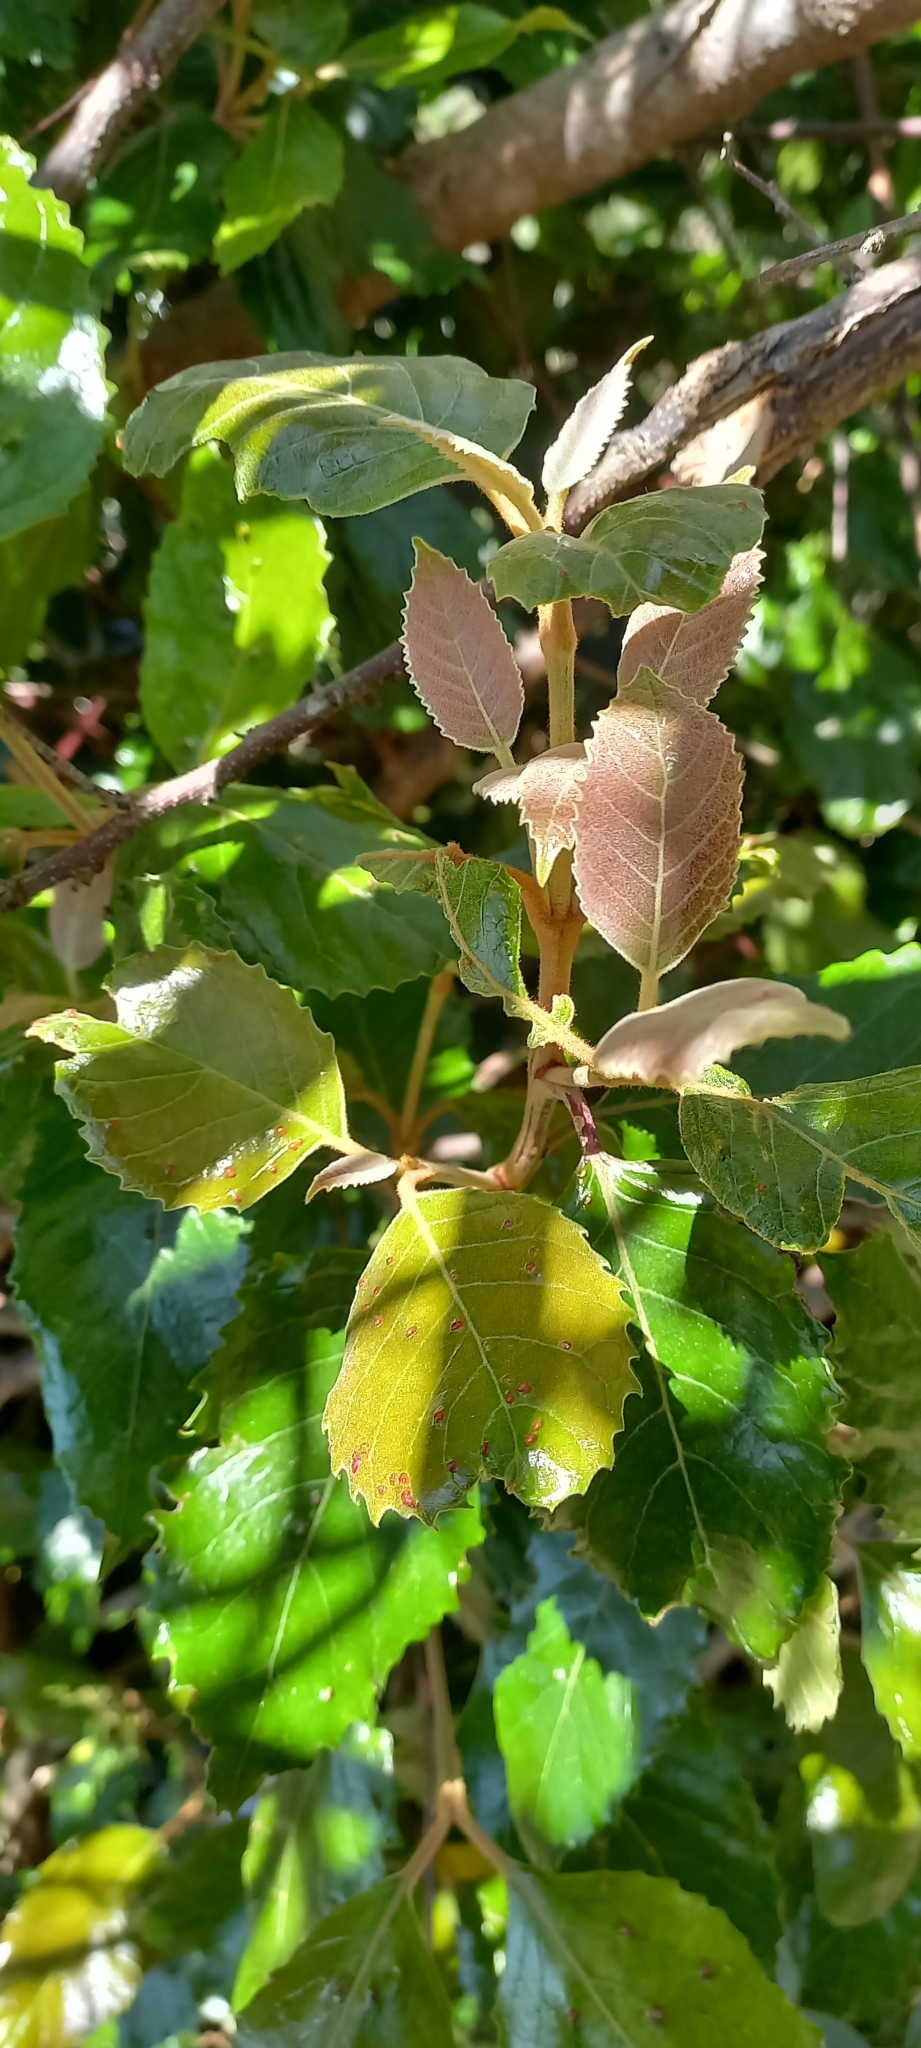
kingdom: Plantae
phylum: Tracheophyta
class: Magnoliopsida
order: Cornales
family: Curtisiaceae
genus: Curtisia
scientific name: Curtisia dentata
